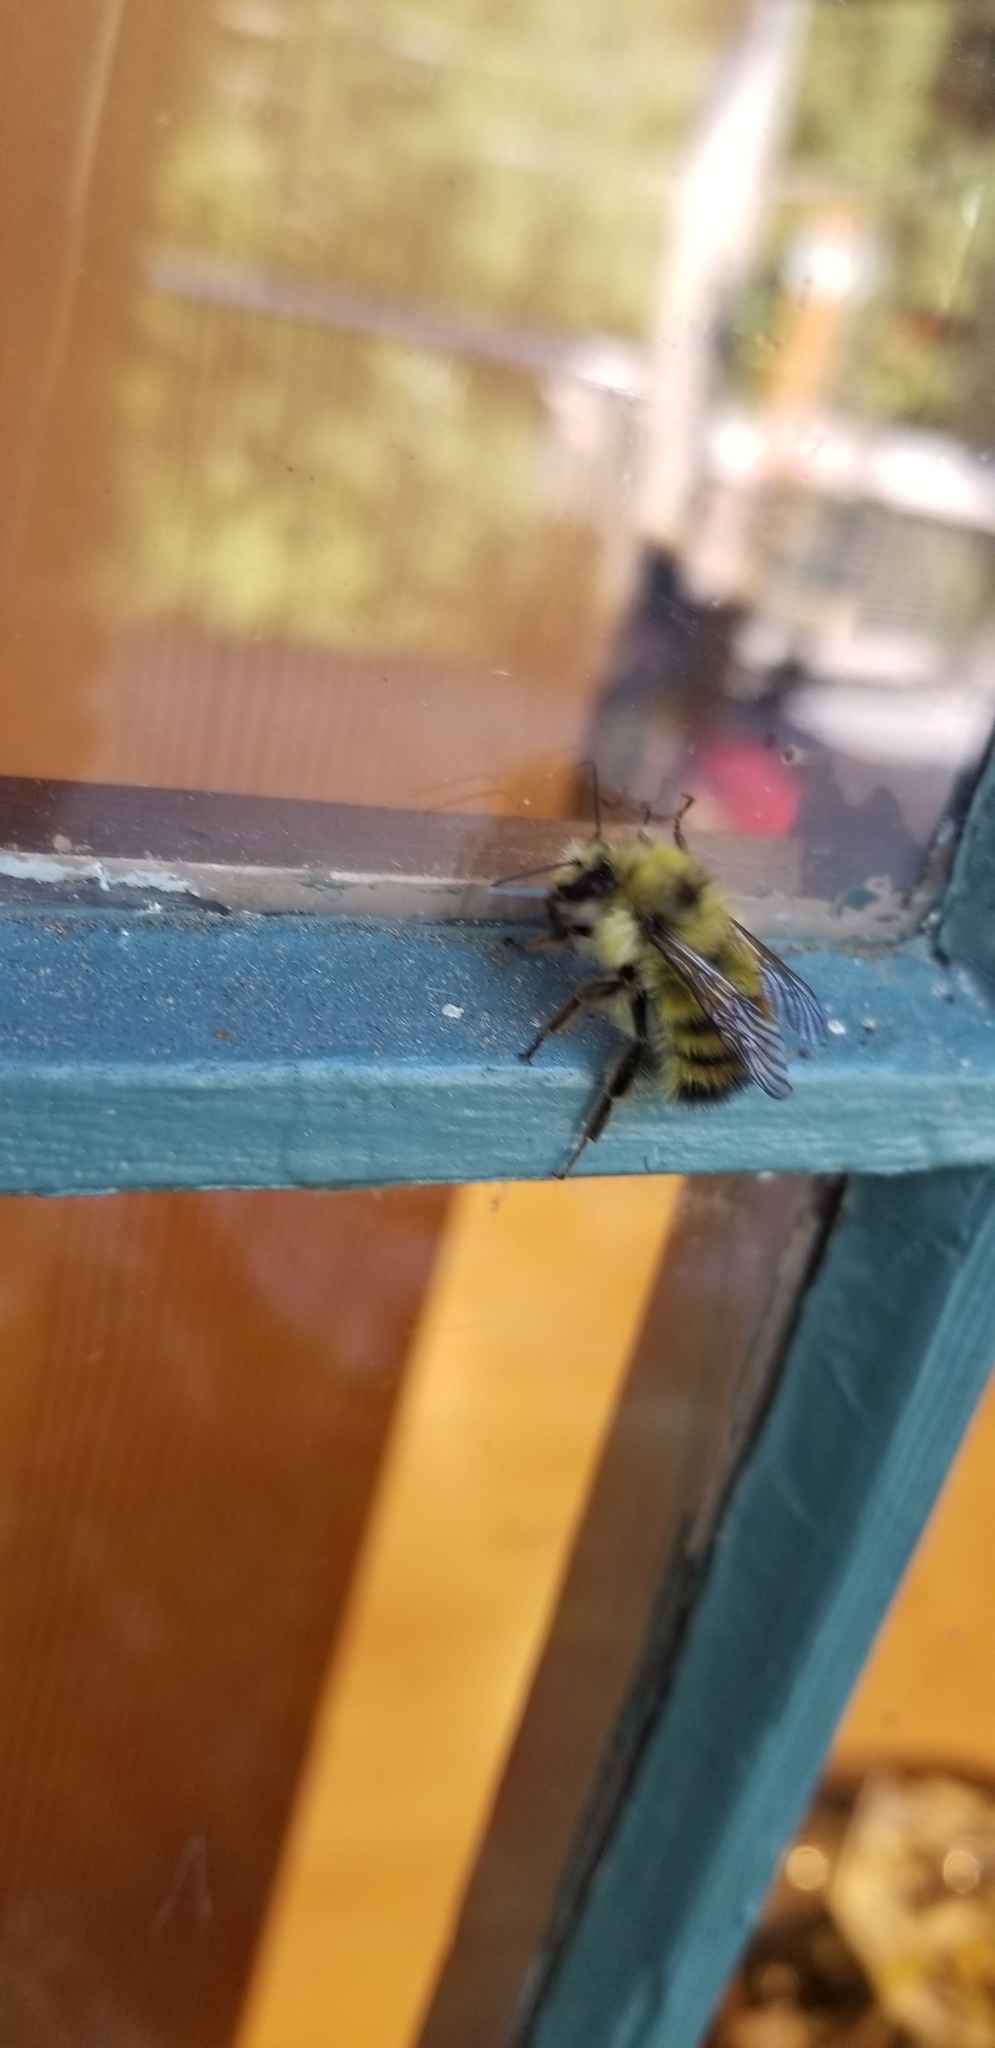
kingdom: Animalia
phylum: Arthropoda
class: Insecta
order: Hymenoptera
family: Apidae
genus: Bombus
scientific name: Bombus flavifrons
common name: Yellow head bumble bee
